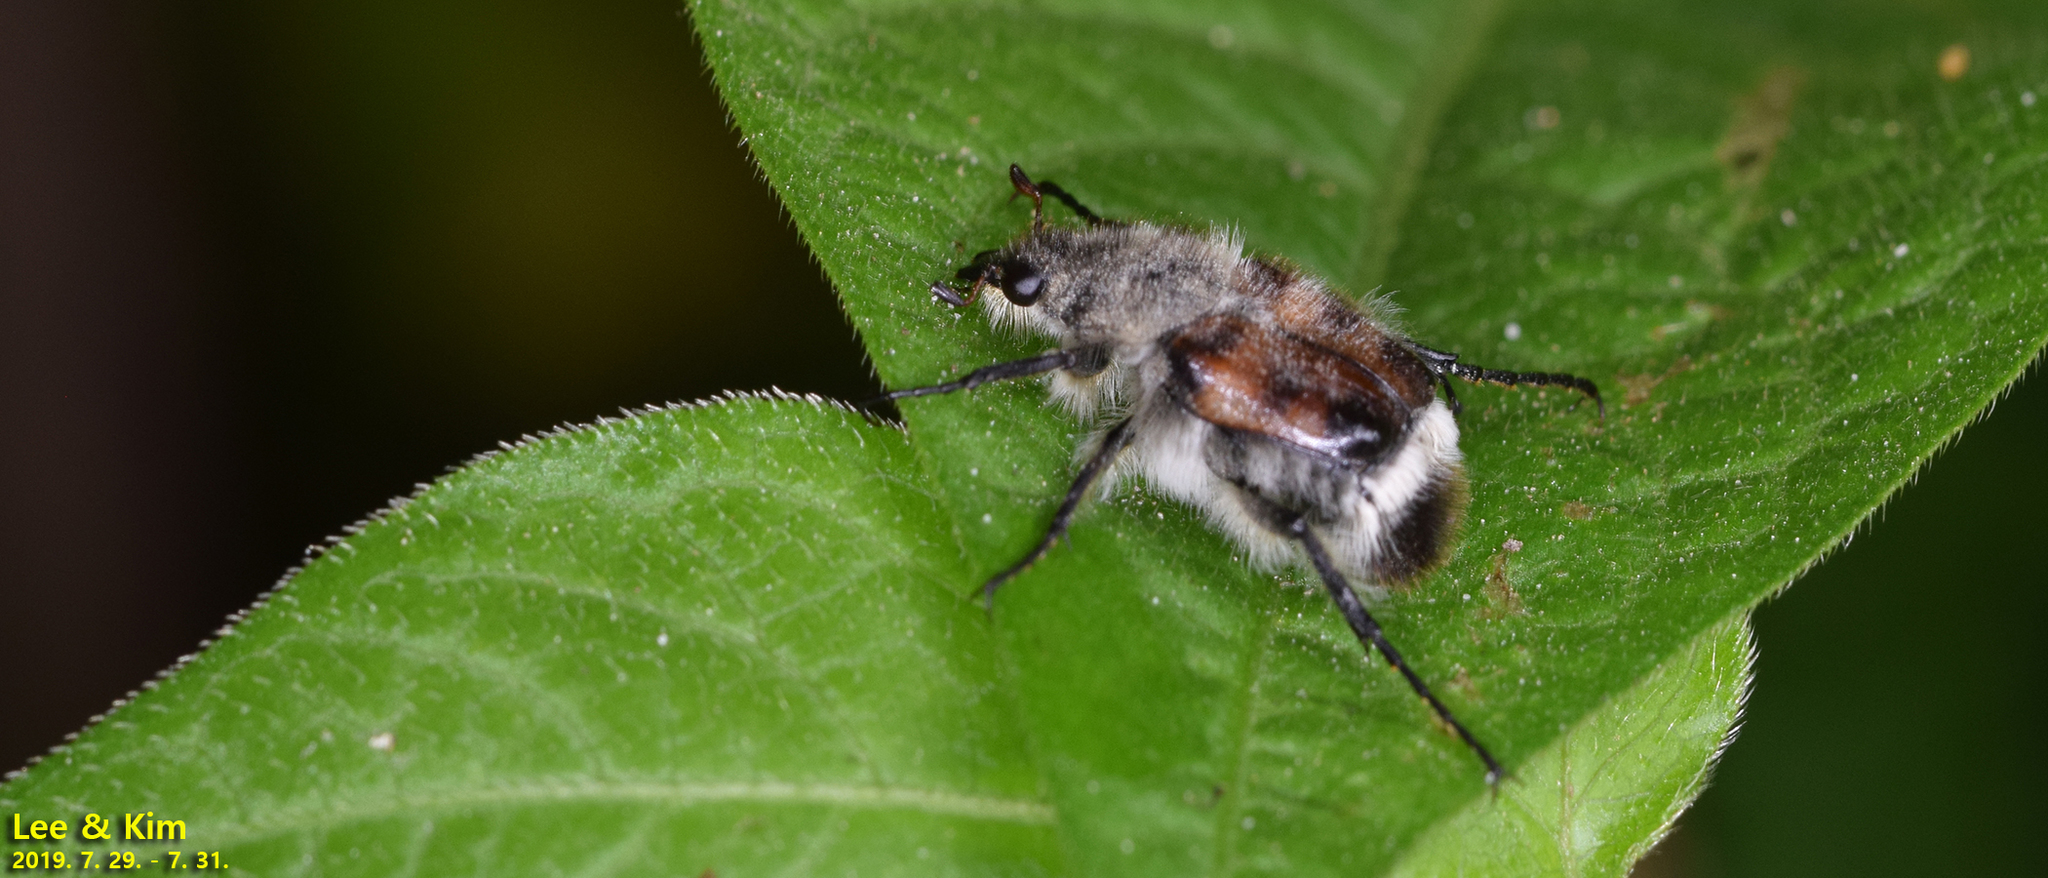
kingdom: Animalia
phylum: Arthropoda
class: Insecta
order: Coleoptera
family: Scarabaeidae
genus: Lasiotrichius
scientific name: Lasiotrichius succinctus
